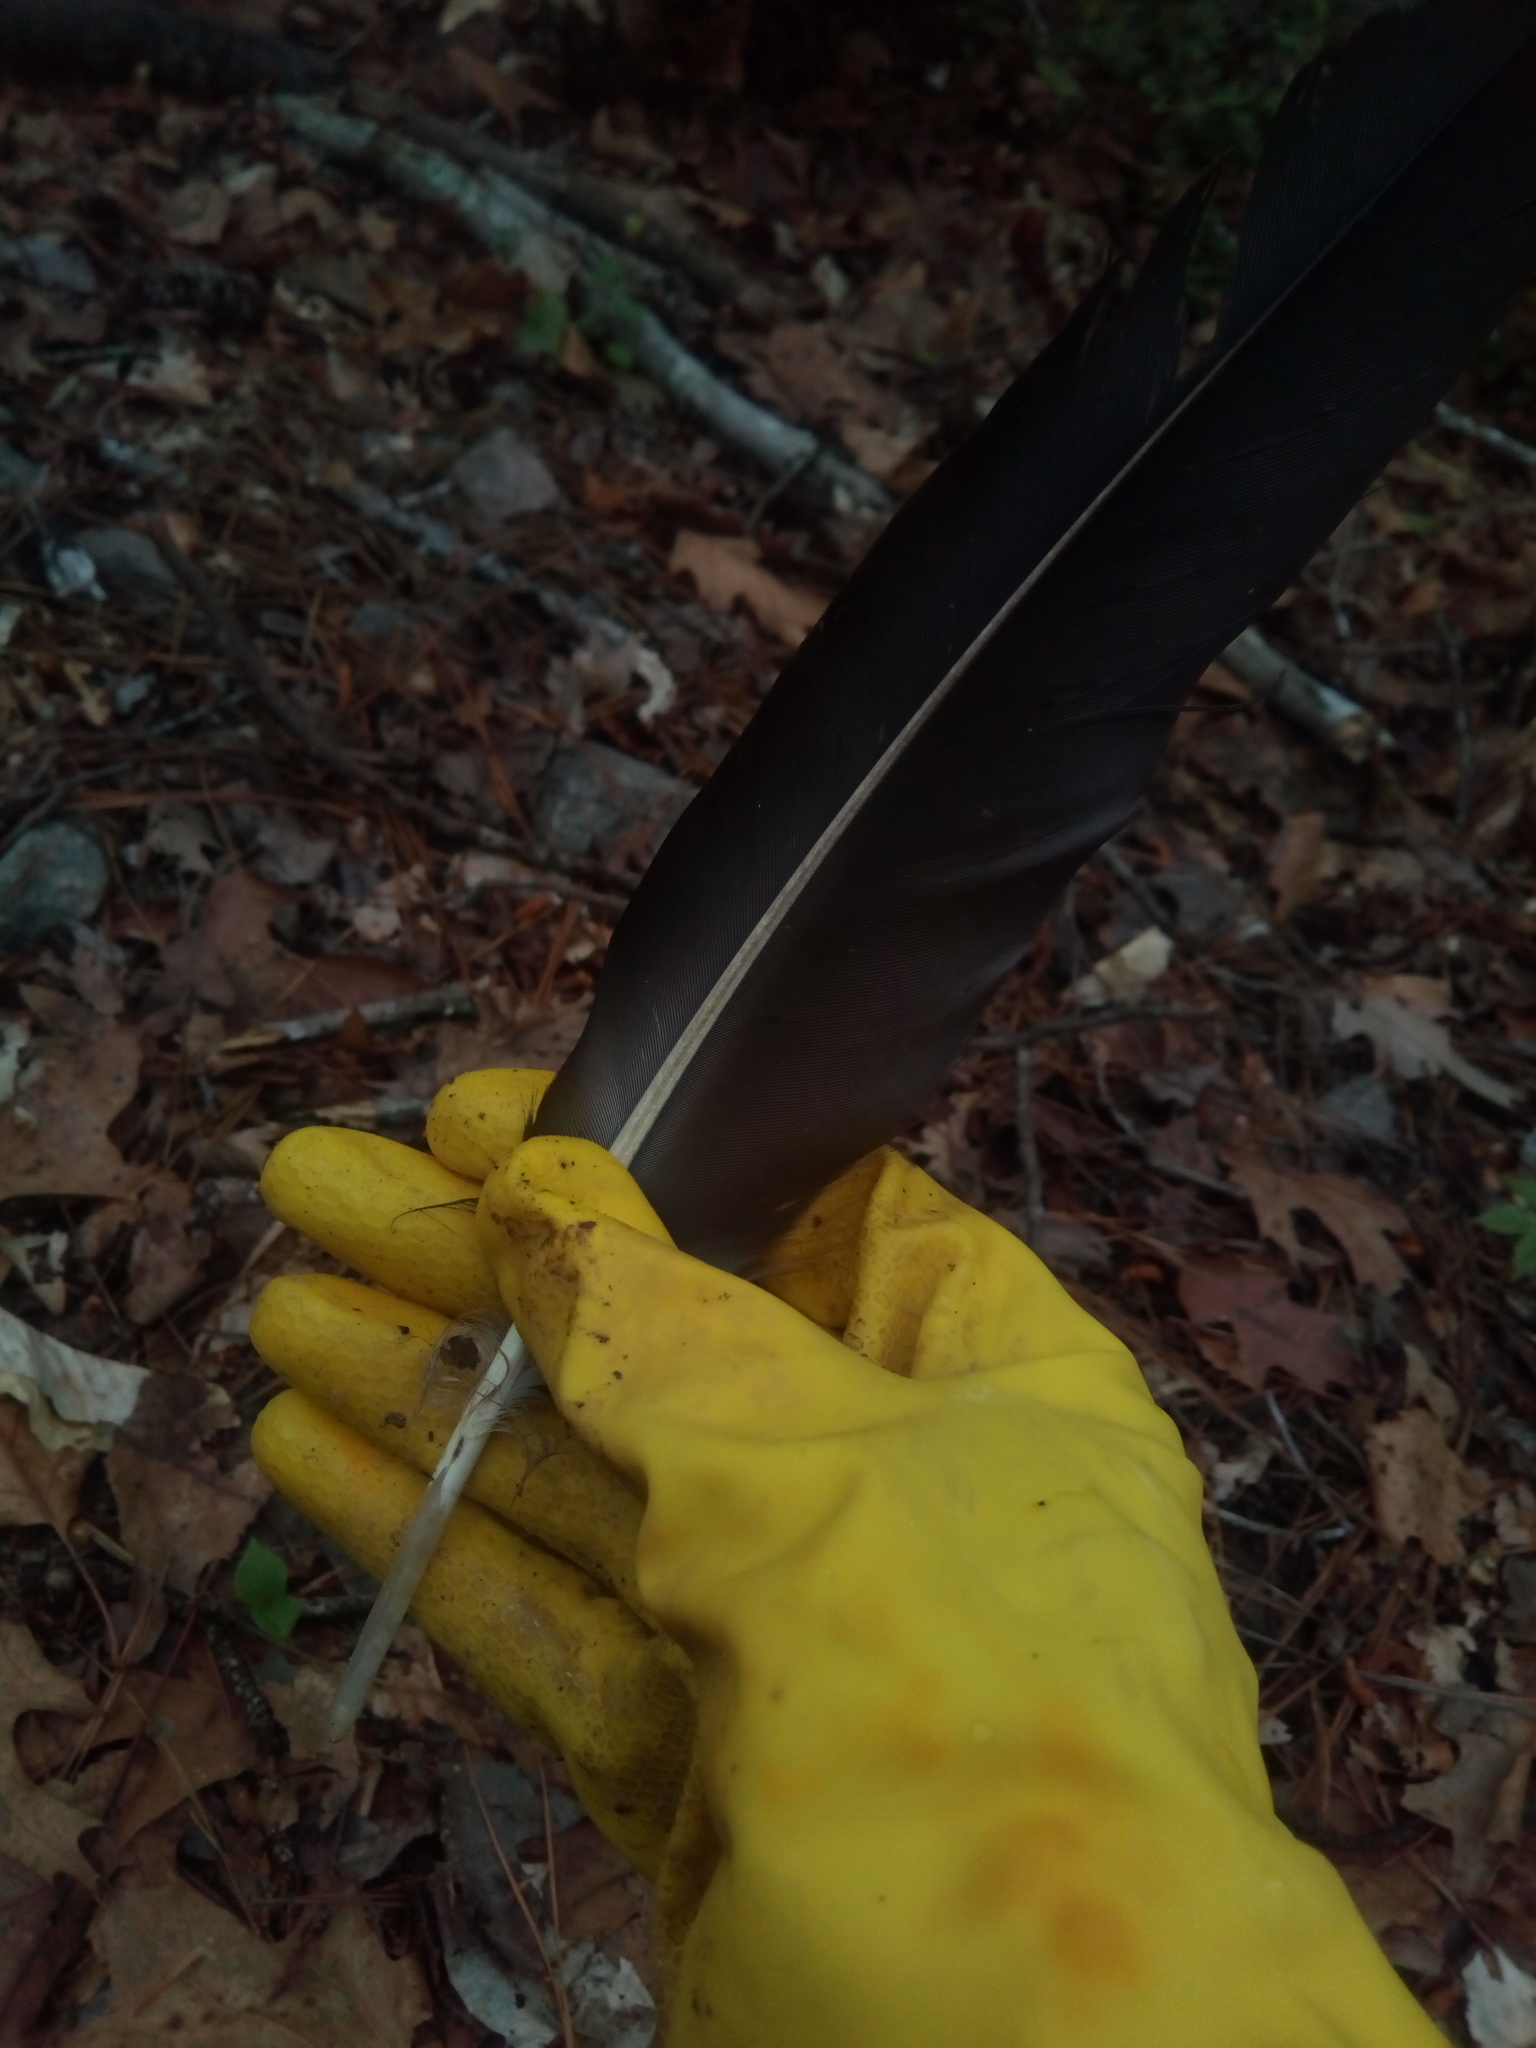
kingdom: Animalia
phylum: Chordata
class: Aves
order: Accipitriformes
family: Cathartidae
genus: Coragyps
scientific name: Coragyps atratus
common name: Black vulture
